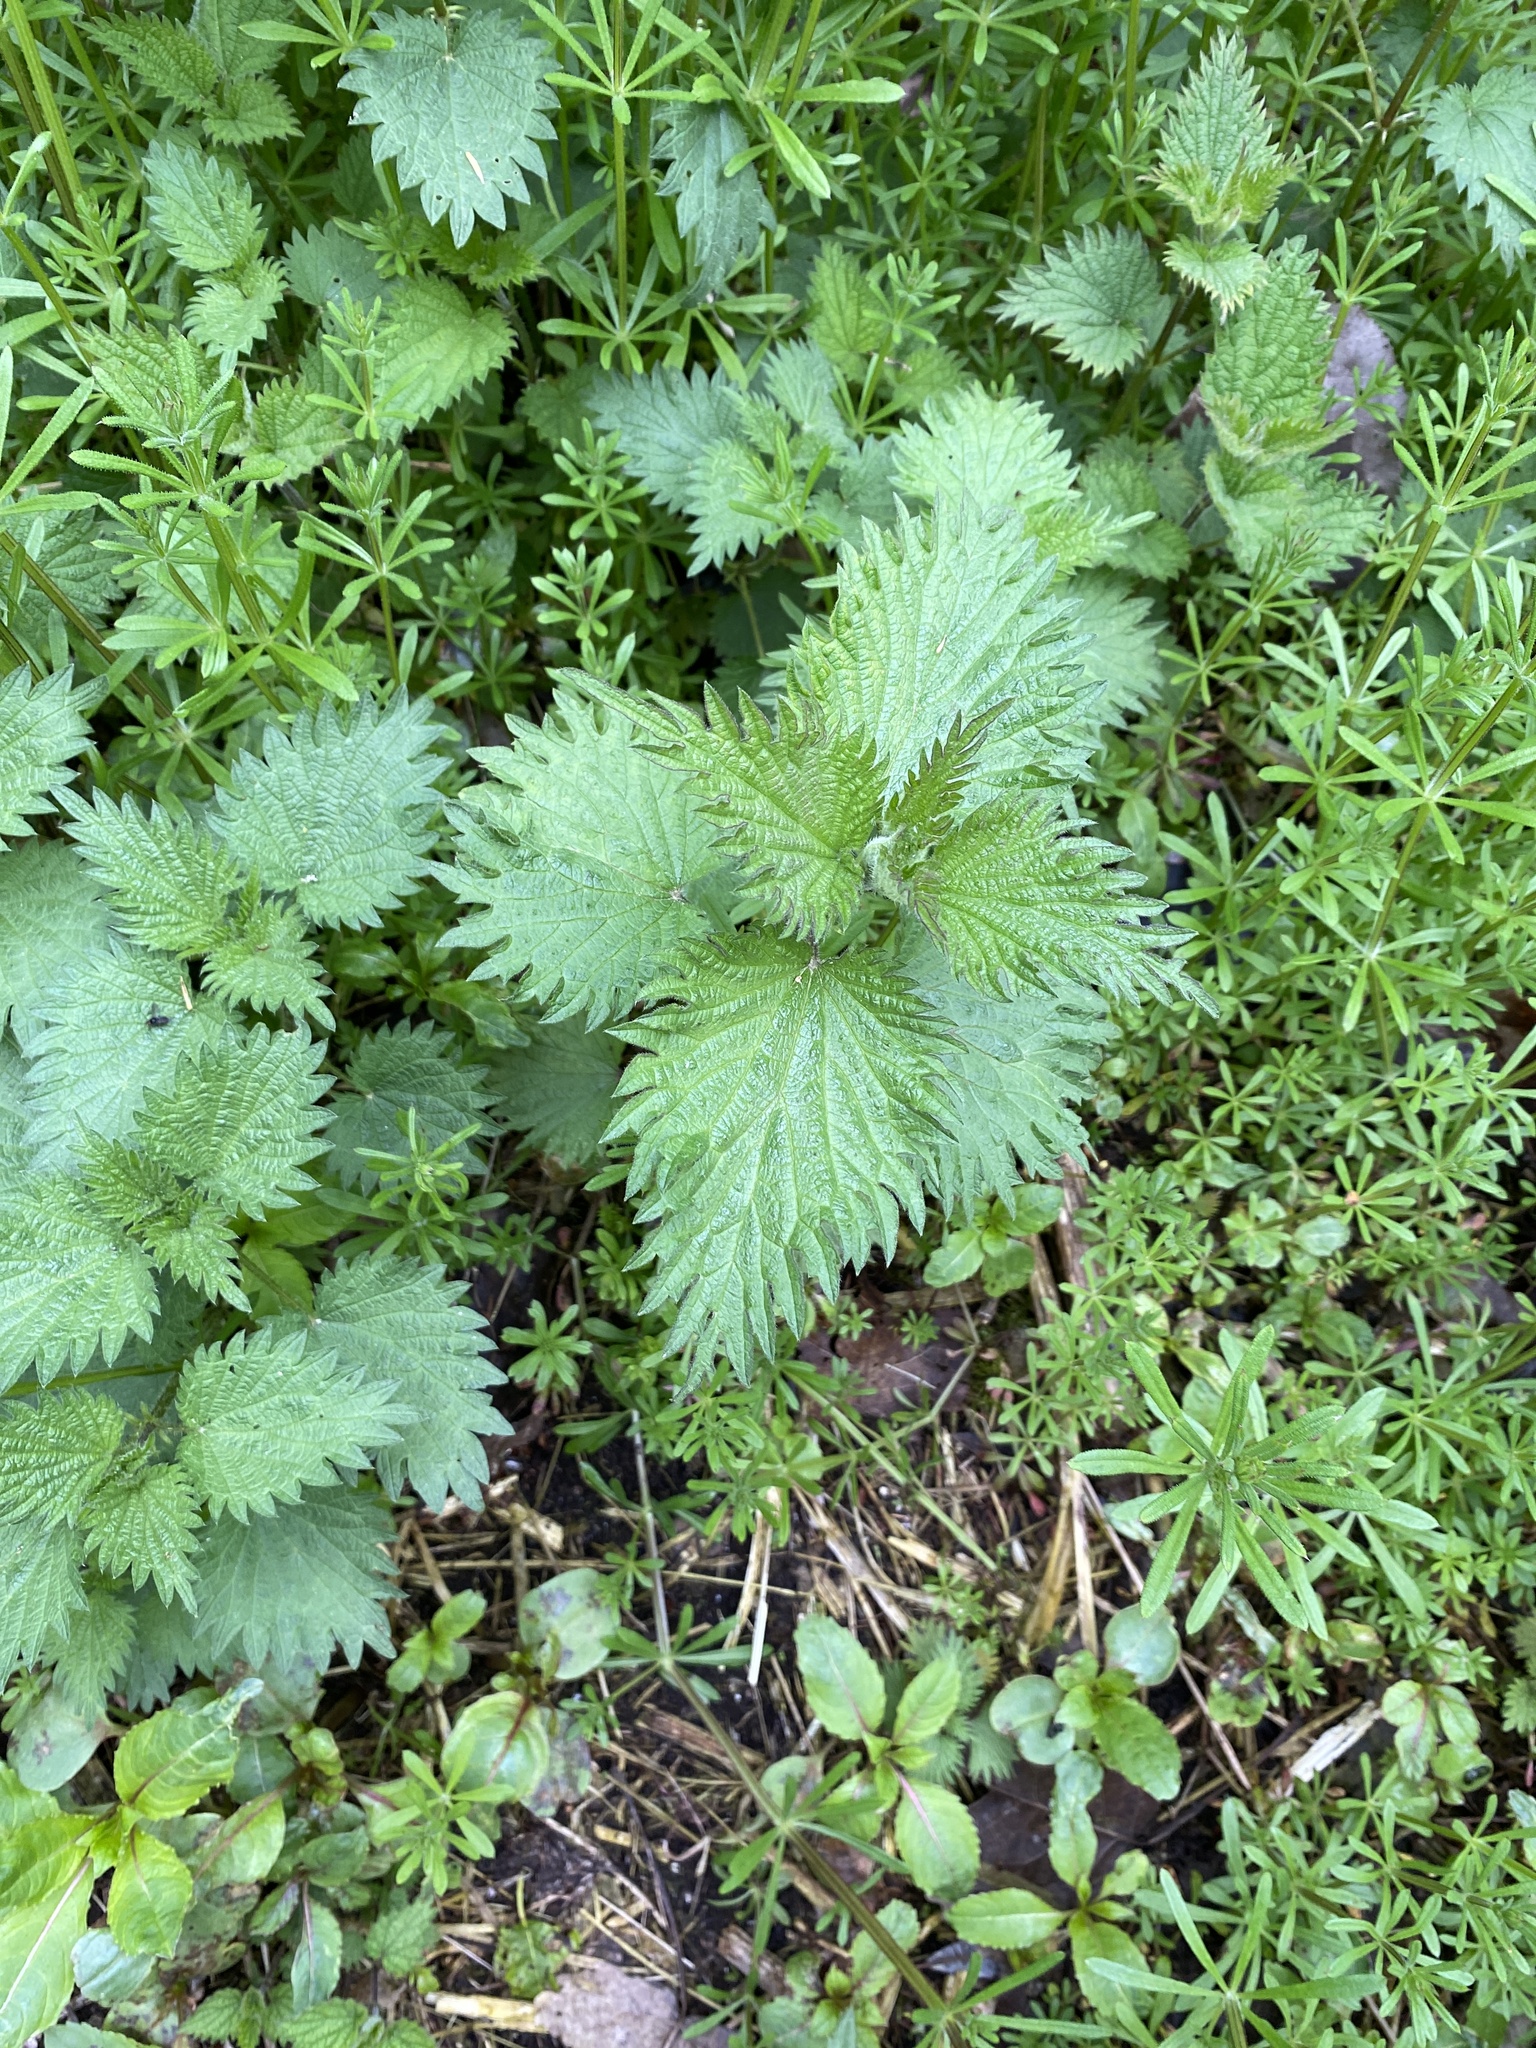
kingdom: Plantae
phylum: Tracheophyta
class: Magnoliopsida
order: Rosales
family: Urticaceae
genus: Urtica
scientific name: Urtica dioica
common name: Common nettle
